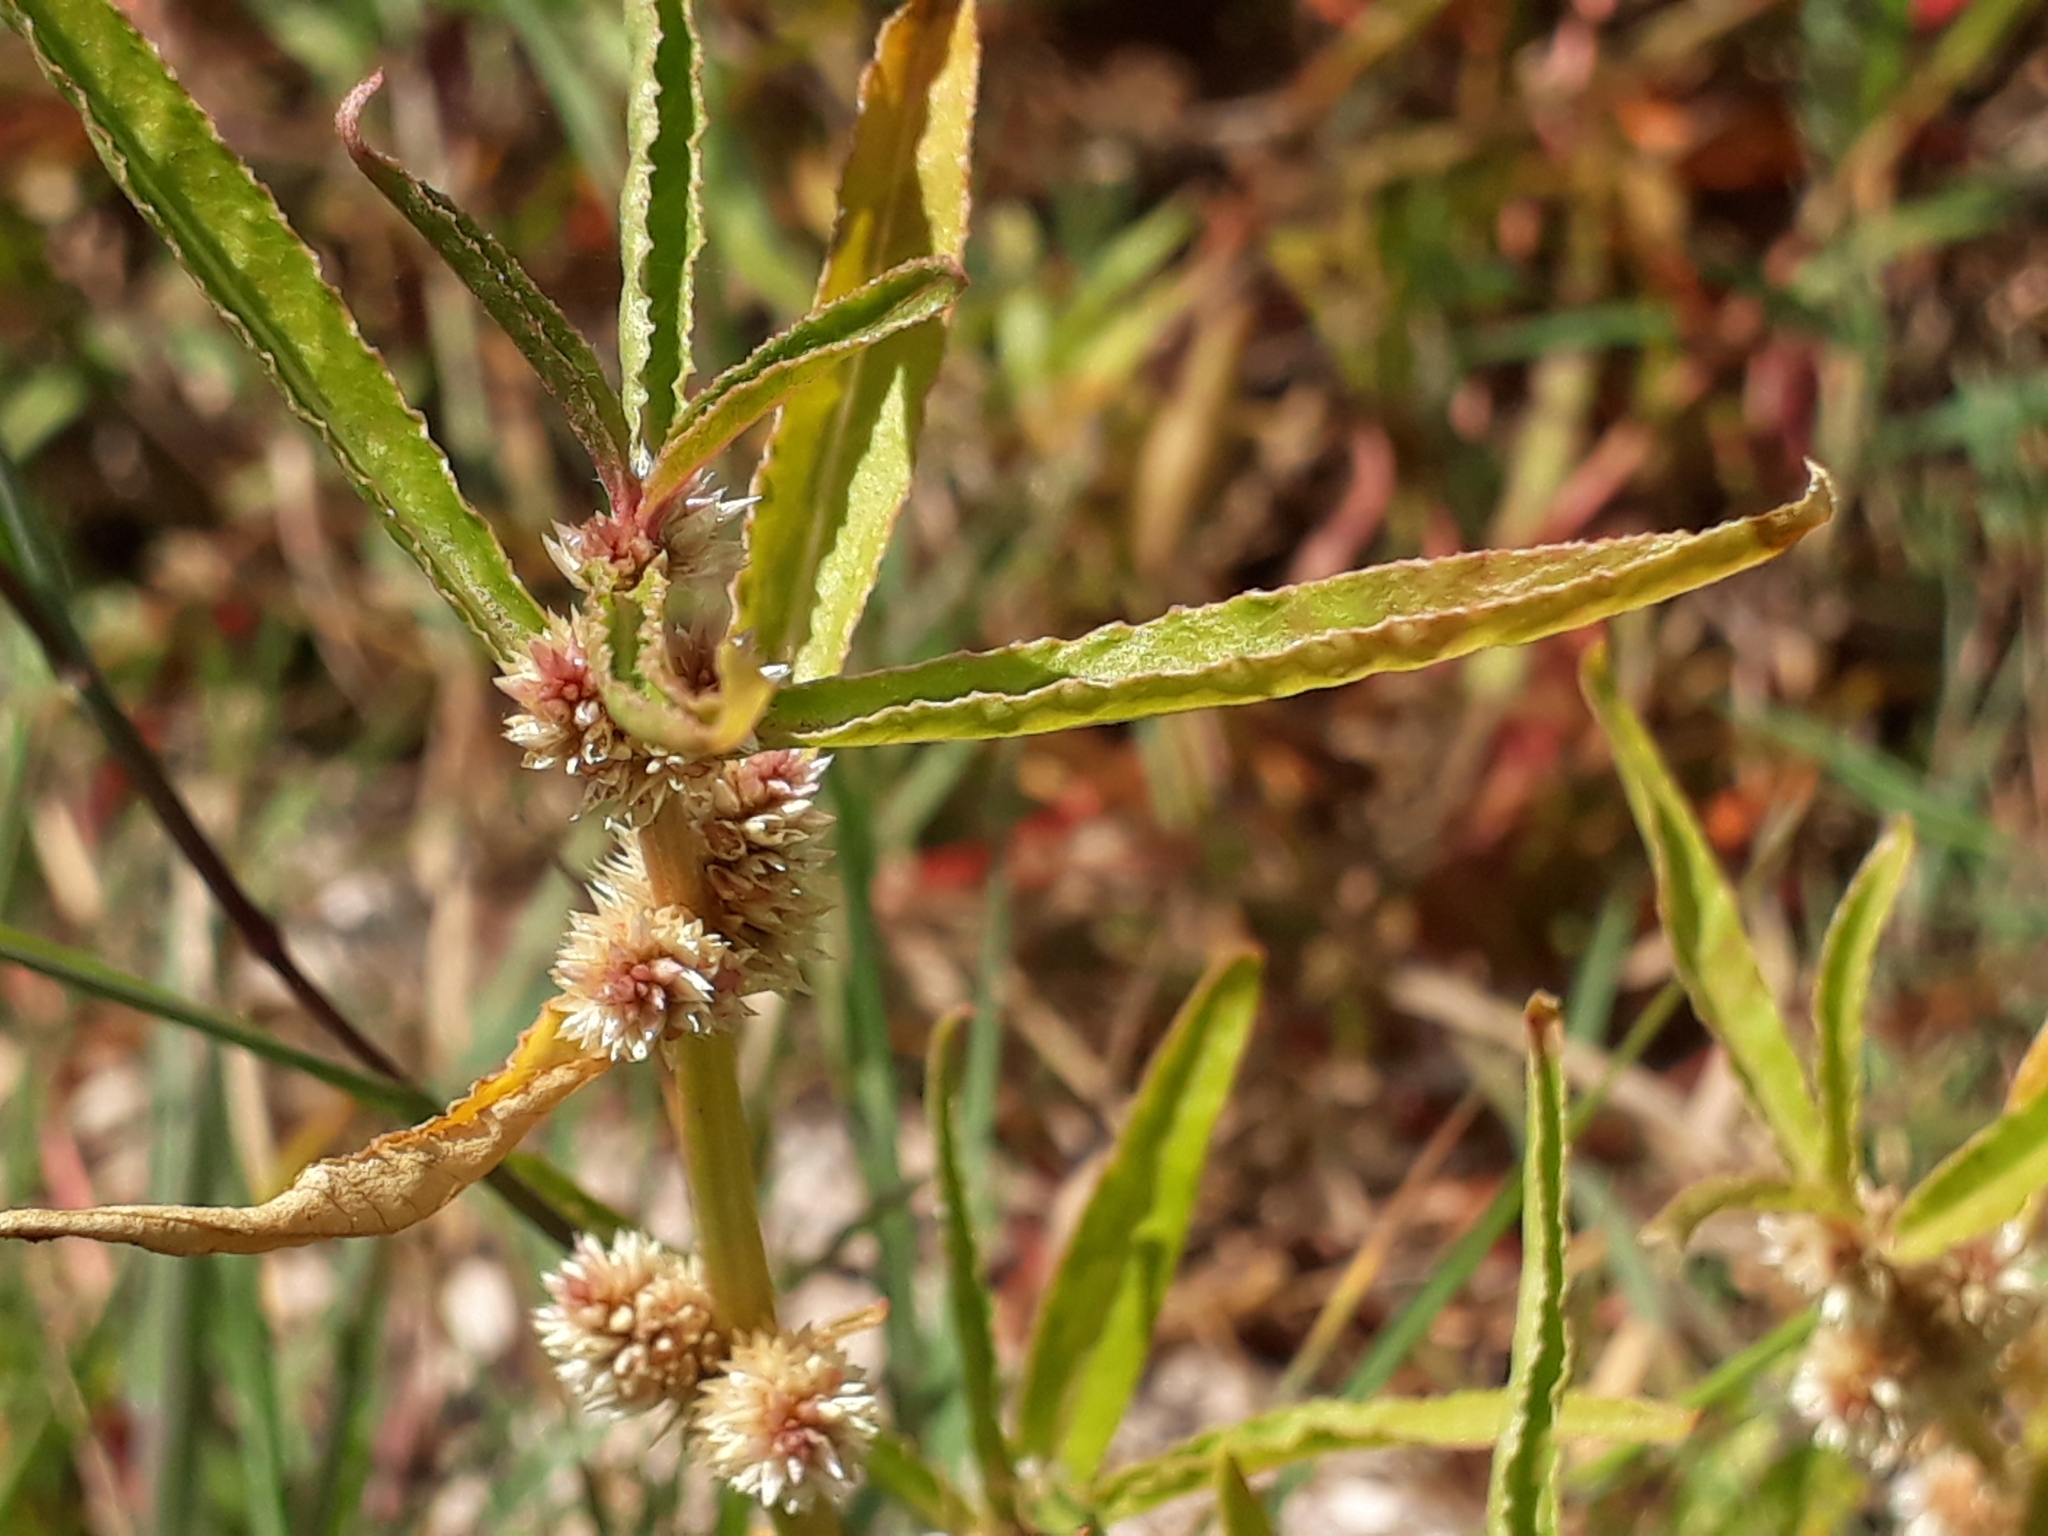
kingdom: Plantae
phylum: Tracheophyta
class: Magnoliopsida
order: Caryophyllales
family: Amaranthaceae
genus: Alternanthera
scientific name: Alternanthera denticulata
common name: Lesser joyweed
